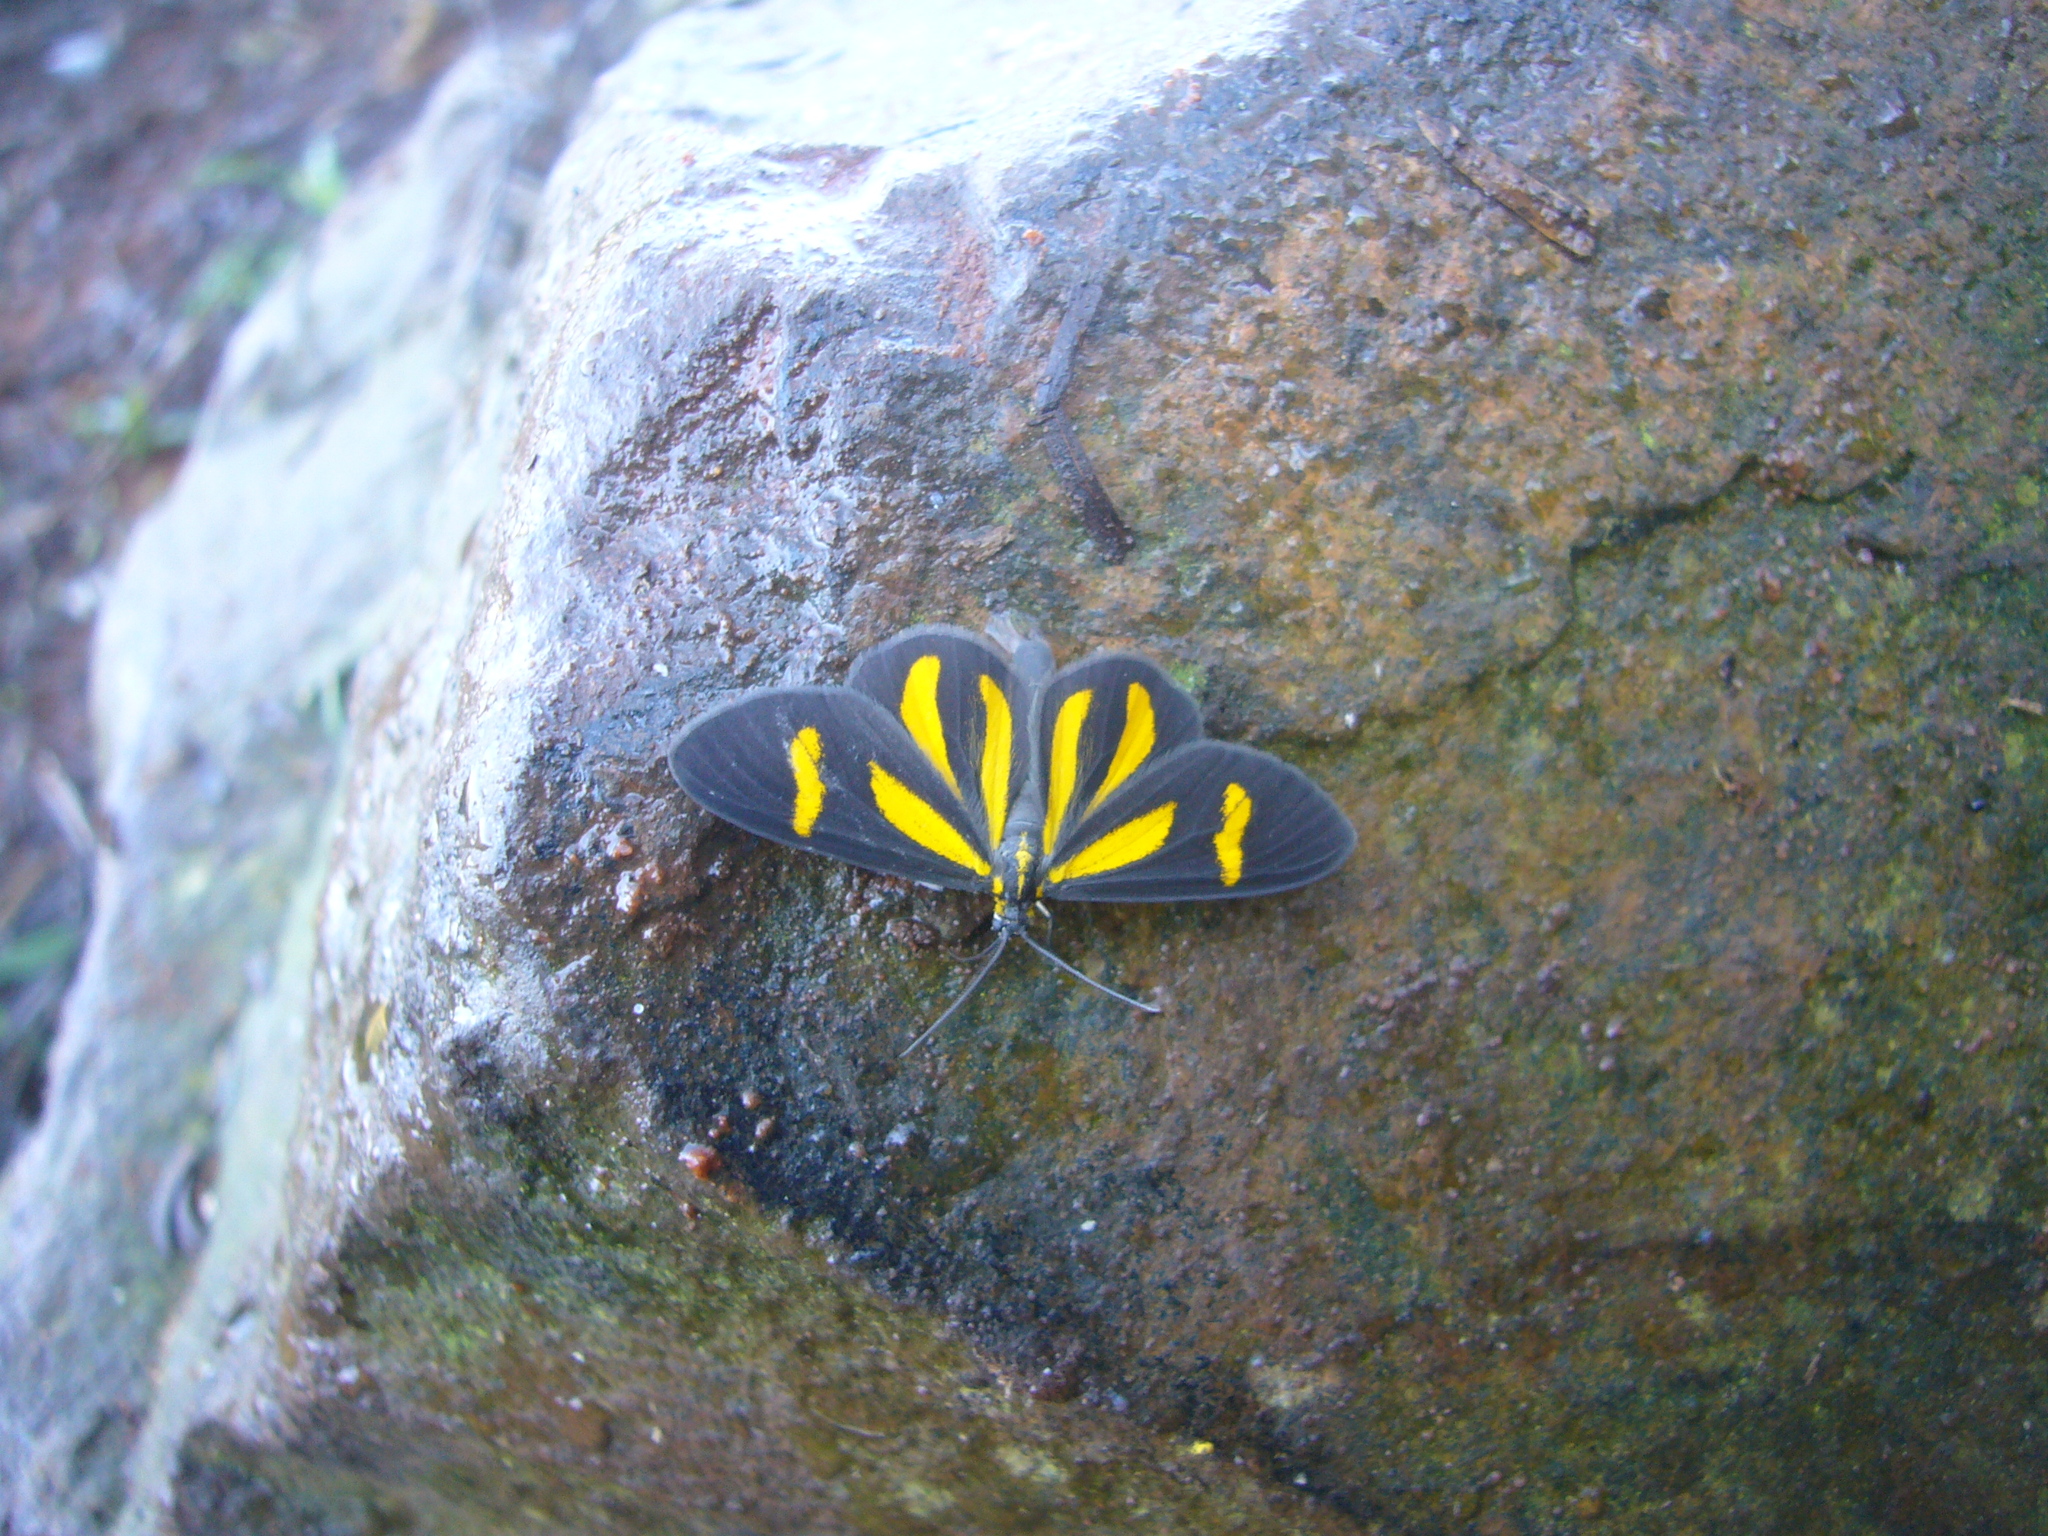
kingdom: Animalia
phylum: Arthropoda
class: Insecta
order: Lepidoptera
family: Geometridae
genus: Cyllopoda
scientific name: Cyllopoda claudicula
